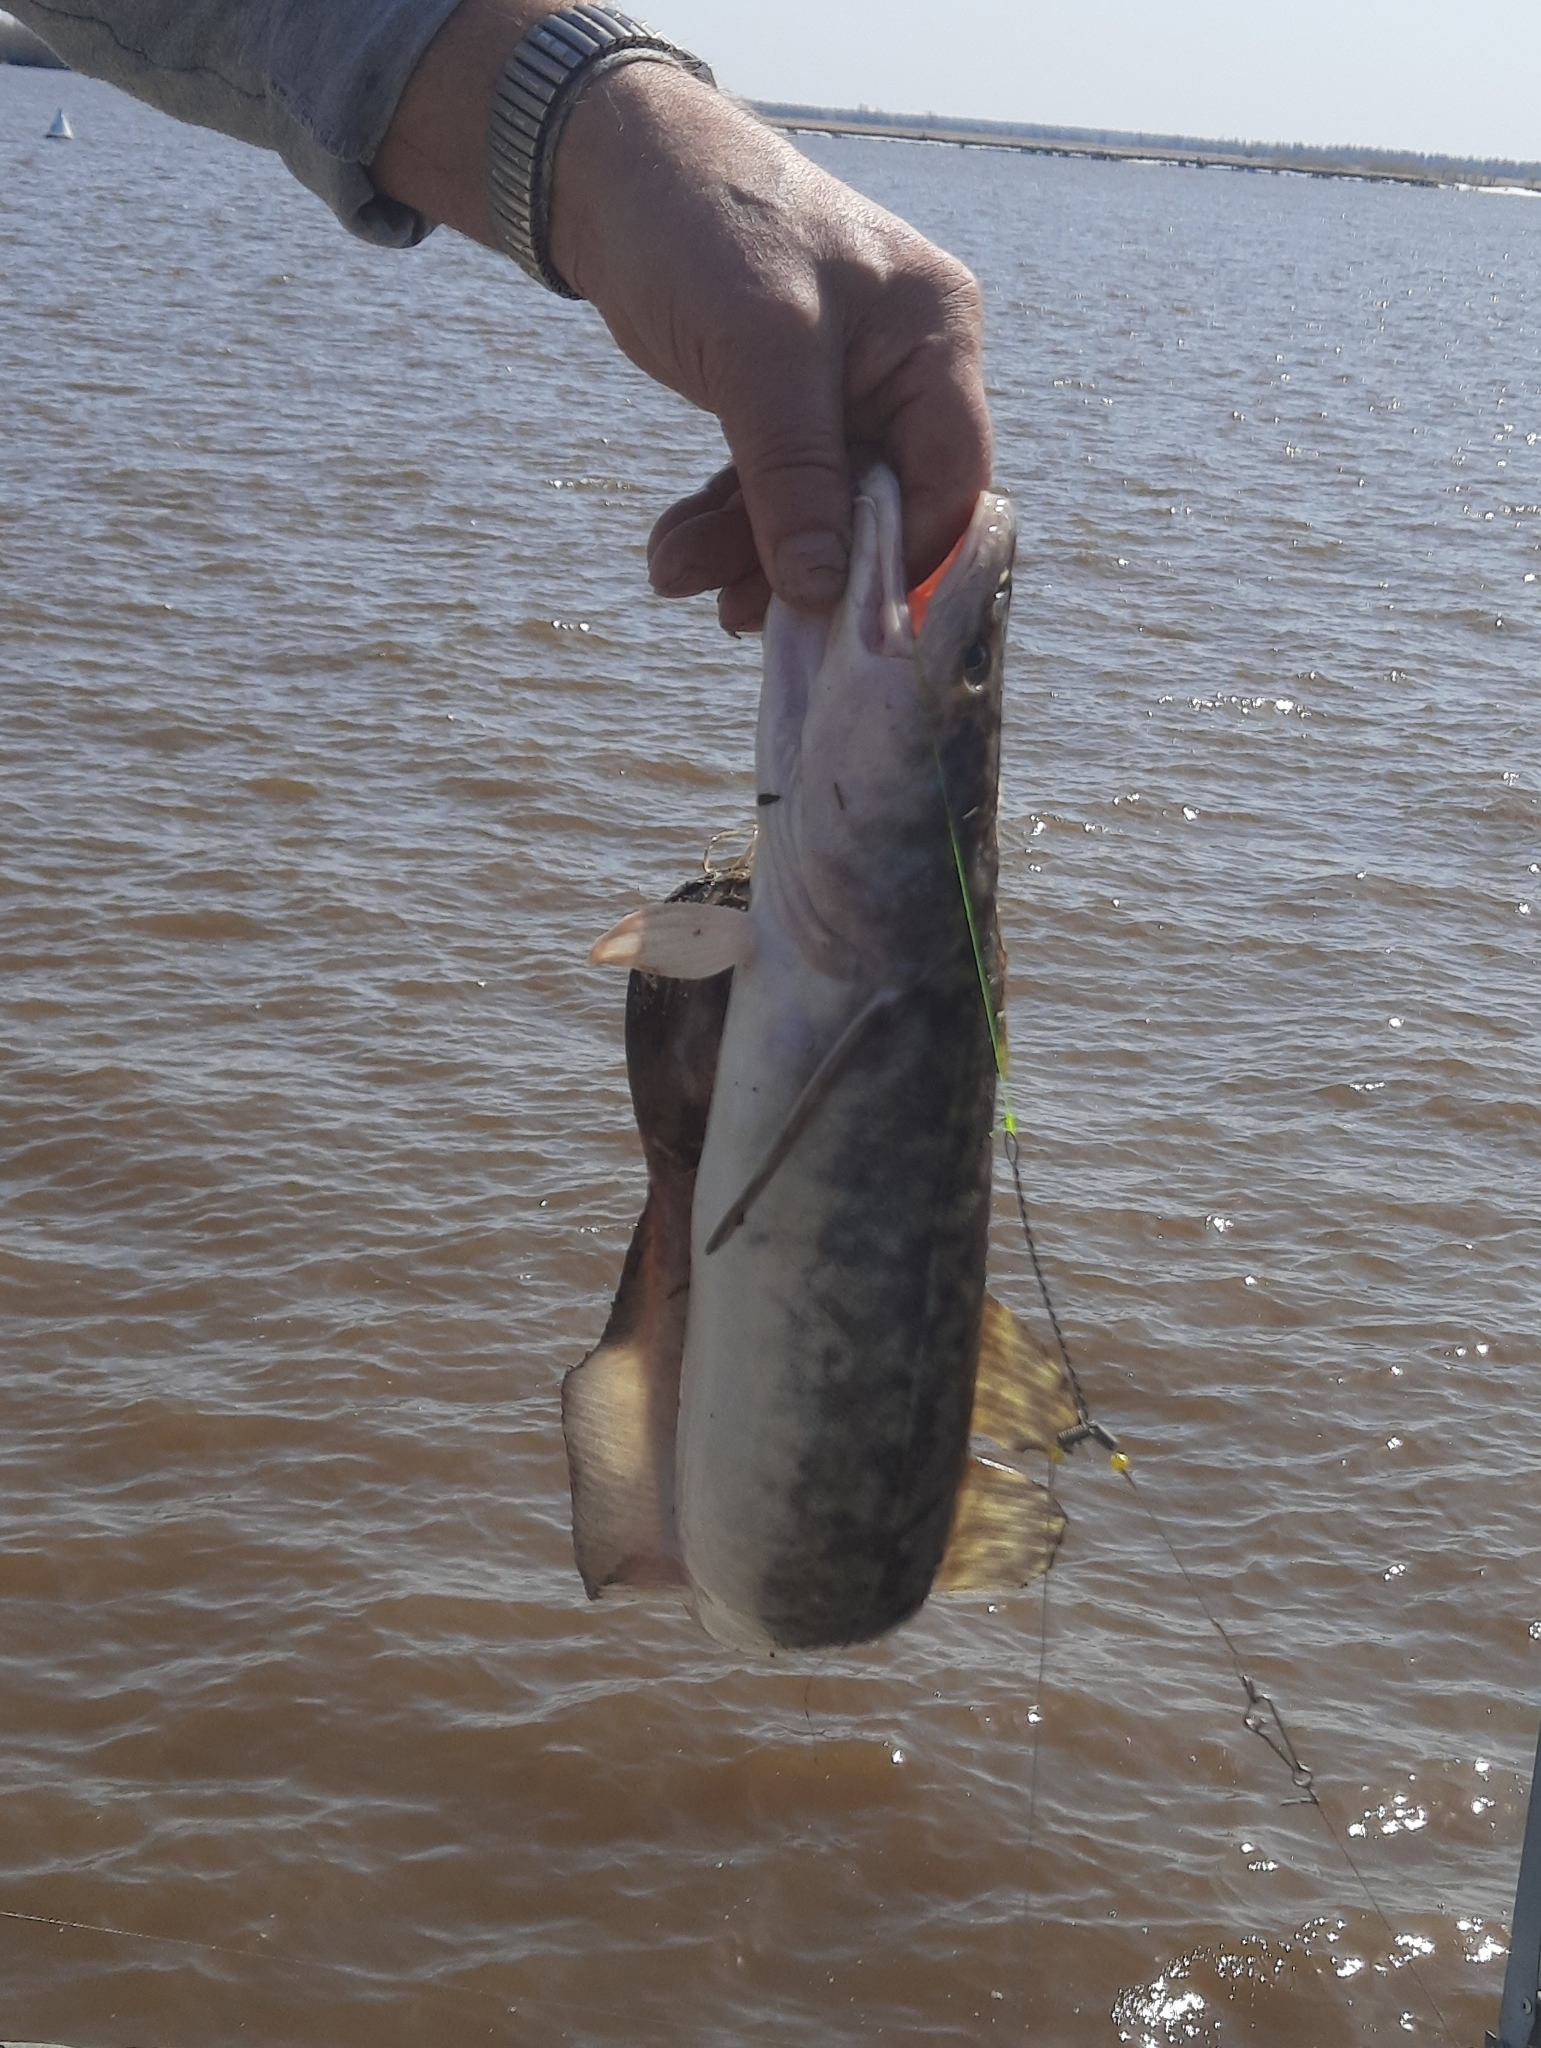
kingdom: Animalia
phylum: Chordata
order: Gadiformes
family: Lotidae
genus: Lota
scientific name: Lota lota
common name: Burbot
